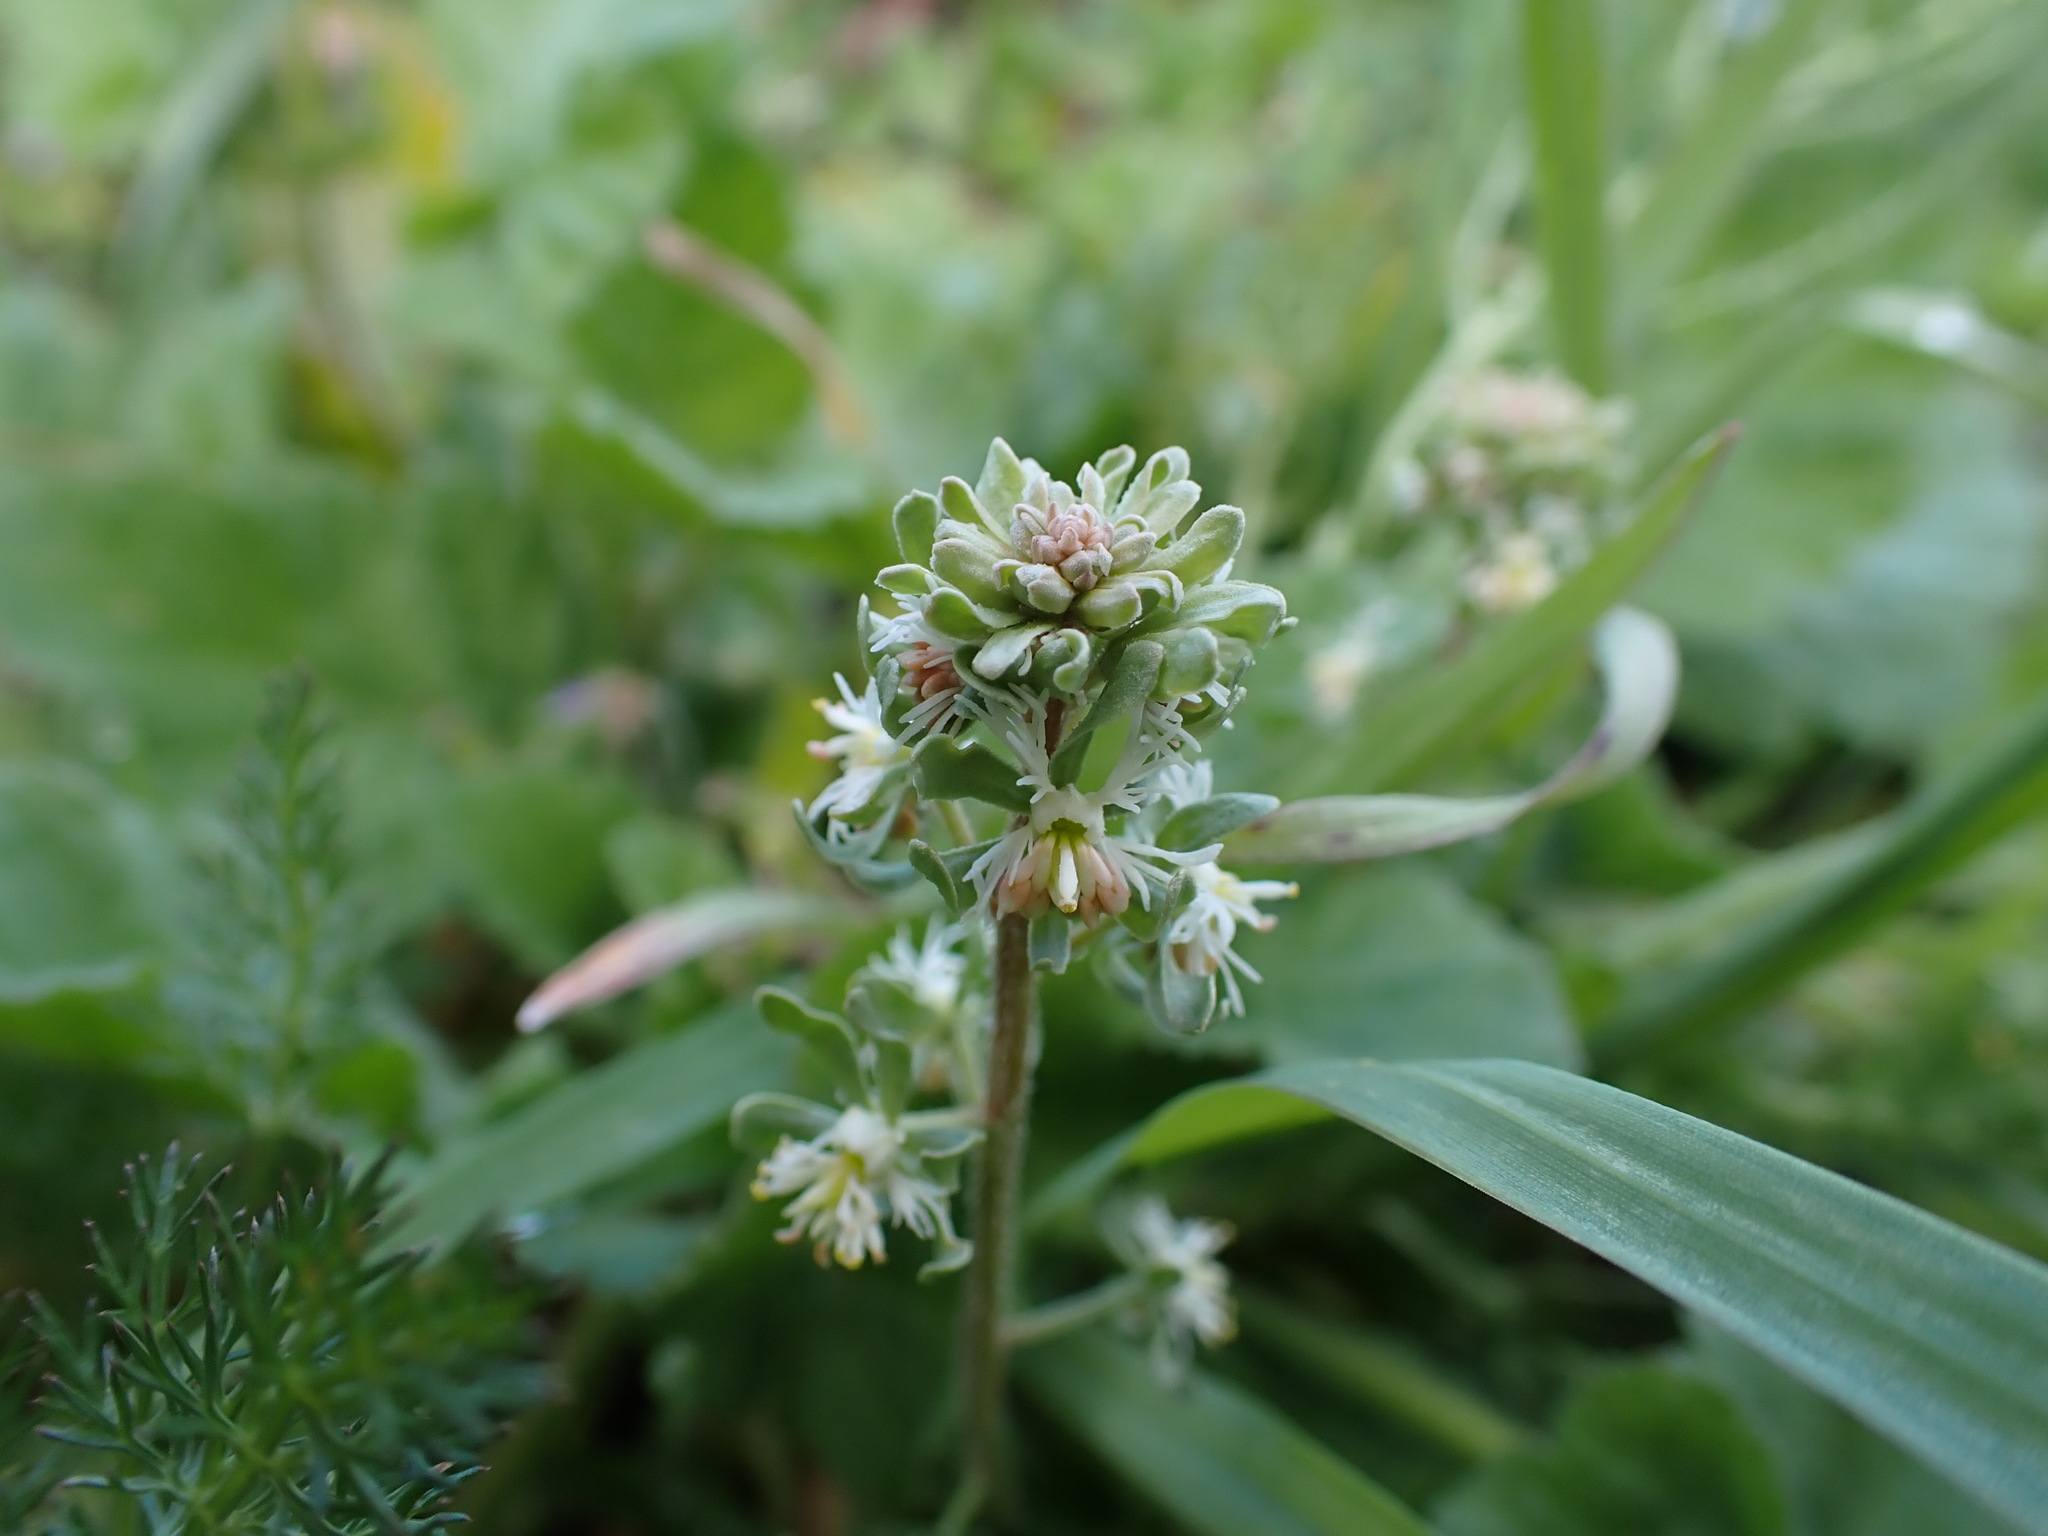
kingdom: Plantae
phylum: Tracheophyta
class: Magnoliopsida
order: Brassicales
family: Resedaceae
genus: Reseda
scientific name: Reseda phyteuma
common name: Corn mignonette
